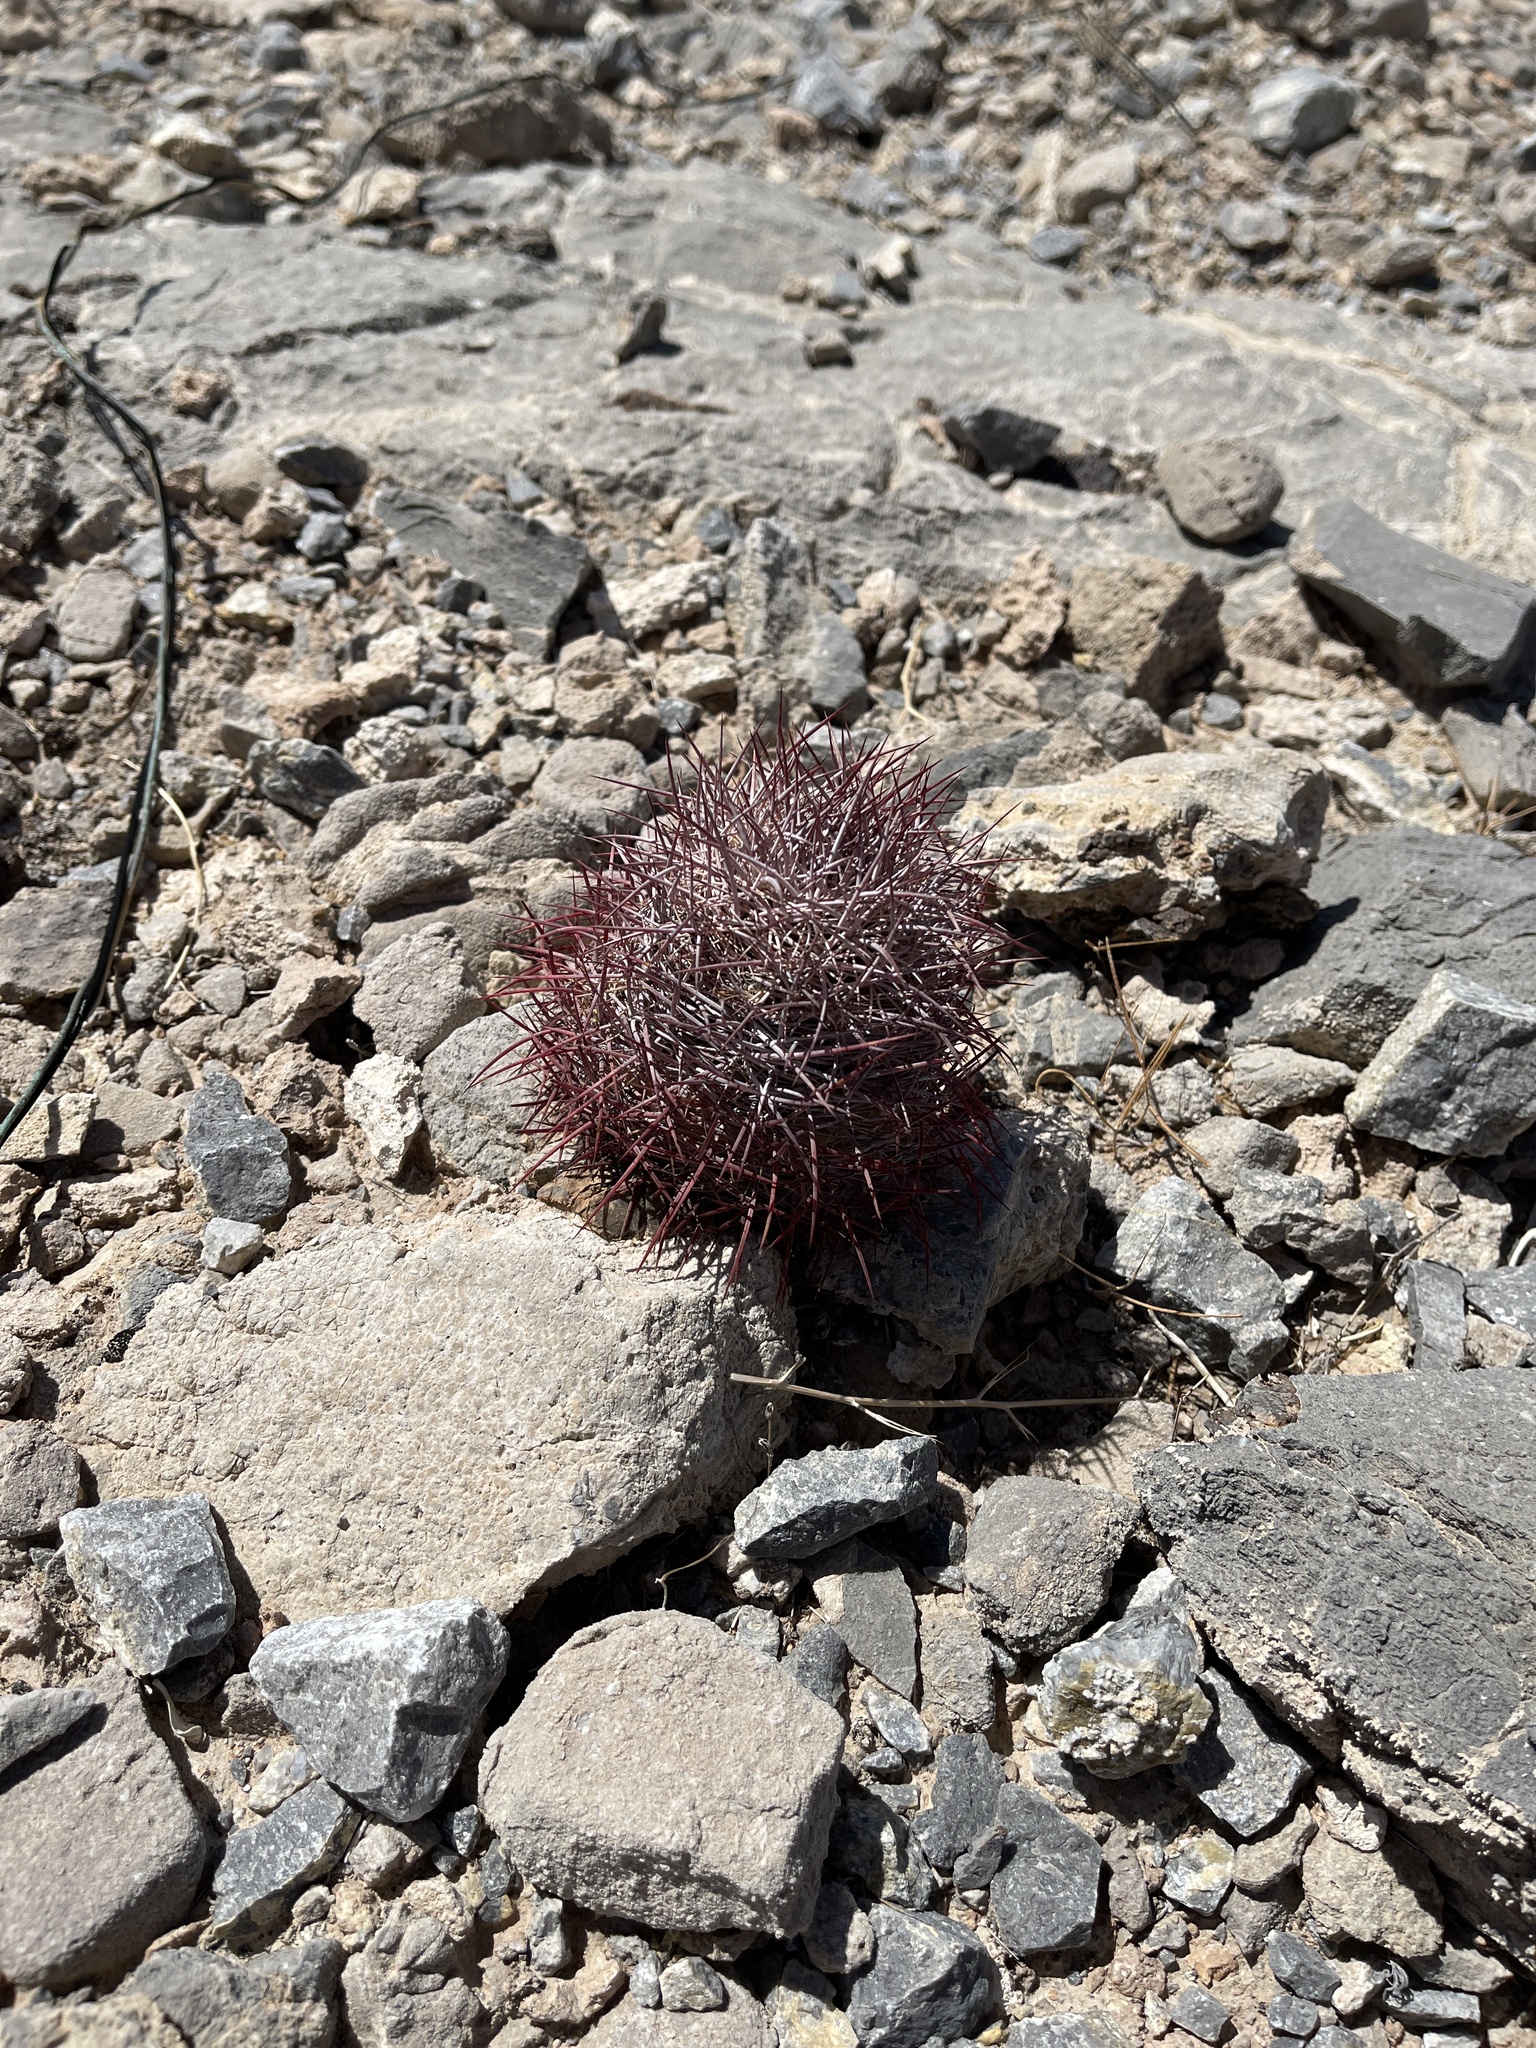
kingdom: Plantae
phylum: Tracheophyta
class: Magnoliopsida
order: Caryophyllales
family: Cactaceae
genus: Sclerocactus
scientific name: Sclerocactus johnsonii
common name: Eight-spine fishhook cactus
